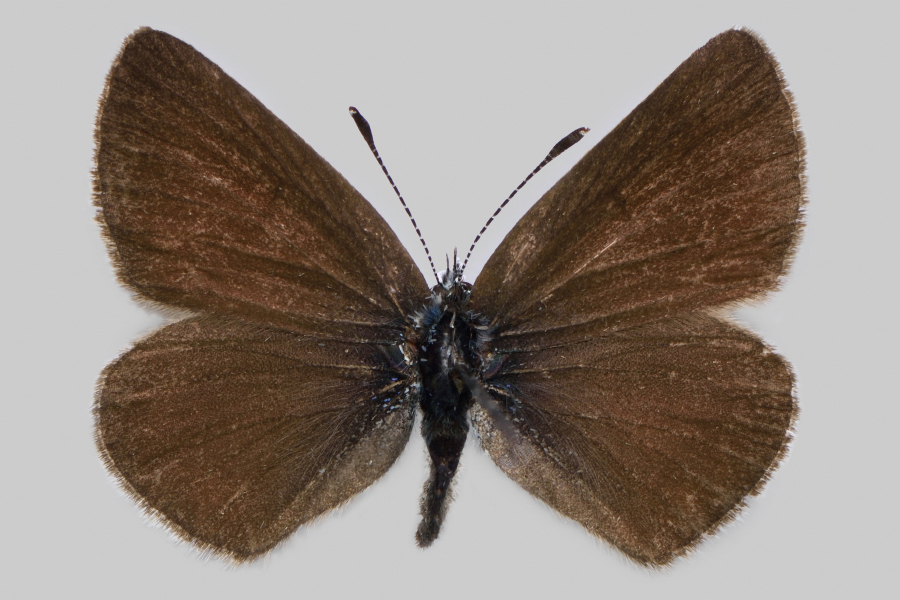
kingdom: Animalia
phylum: Arthropoda
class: Insecta
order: Lepidoptera
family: Lycaenidae
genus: Cyaniris
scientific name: Cyaniris semiargus
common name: Mazarine blue
